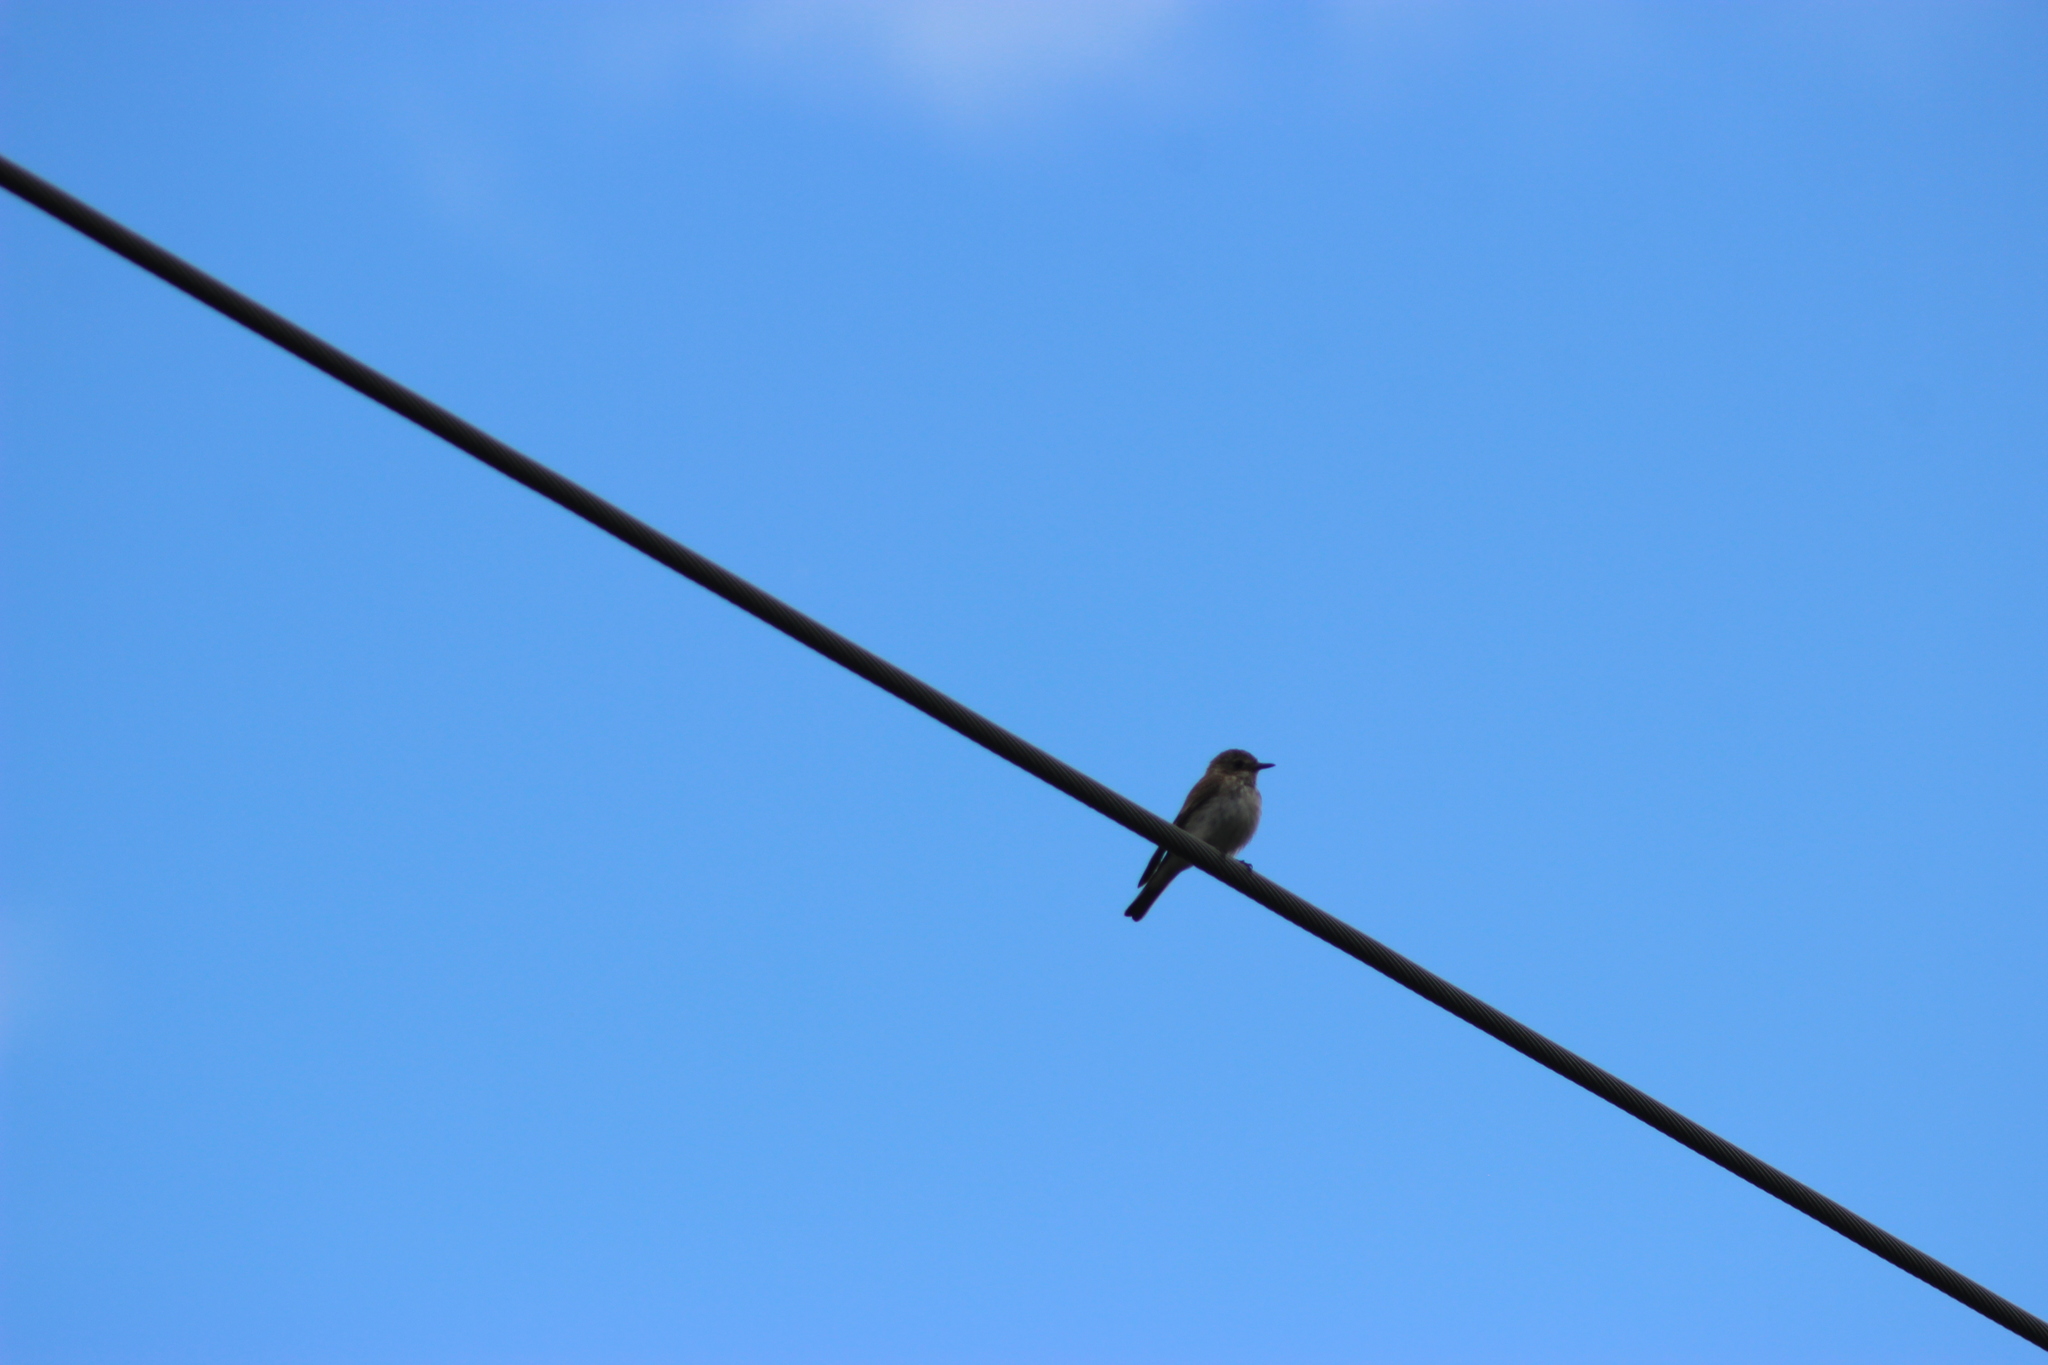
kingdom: Animalia
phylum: Chordata
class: Aves
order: Passeriformes
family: Muscicapidae
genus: Muscicapa
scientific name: Muscicapa striata
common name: Spotted flycatcher
